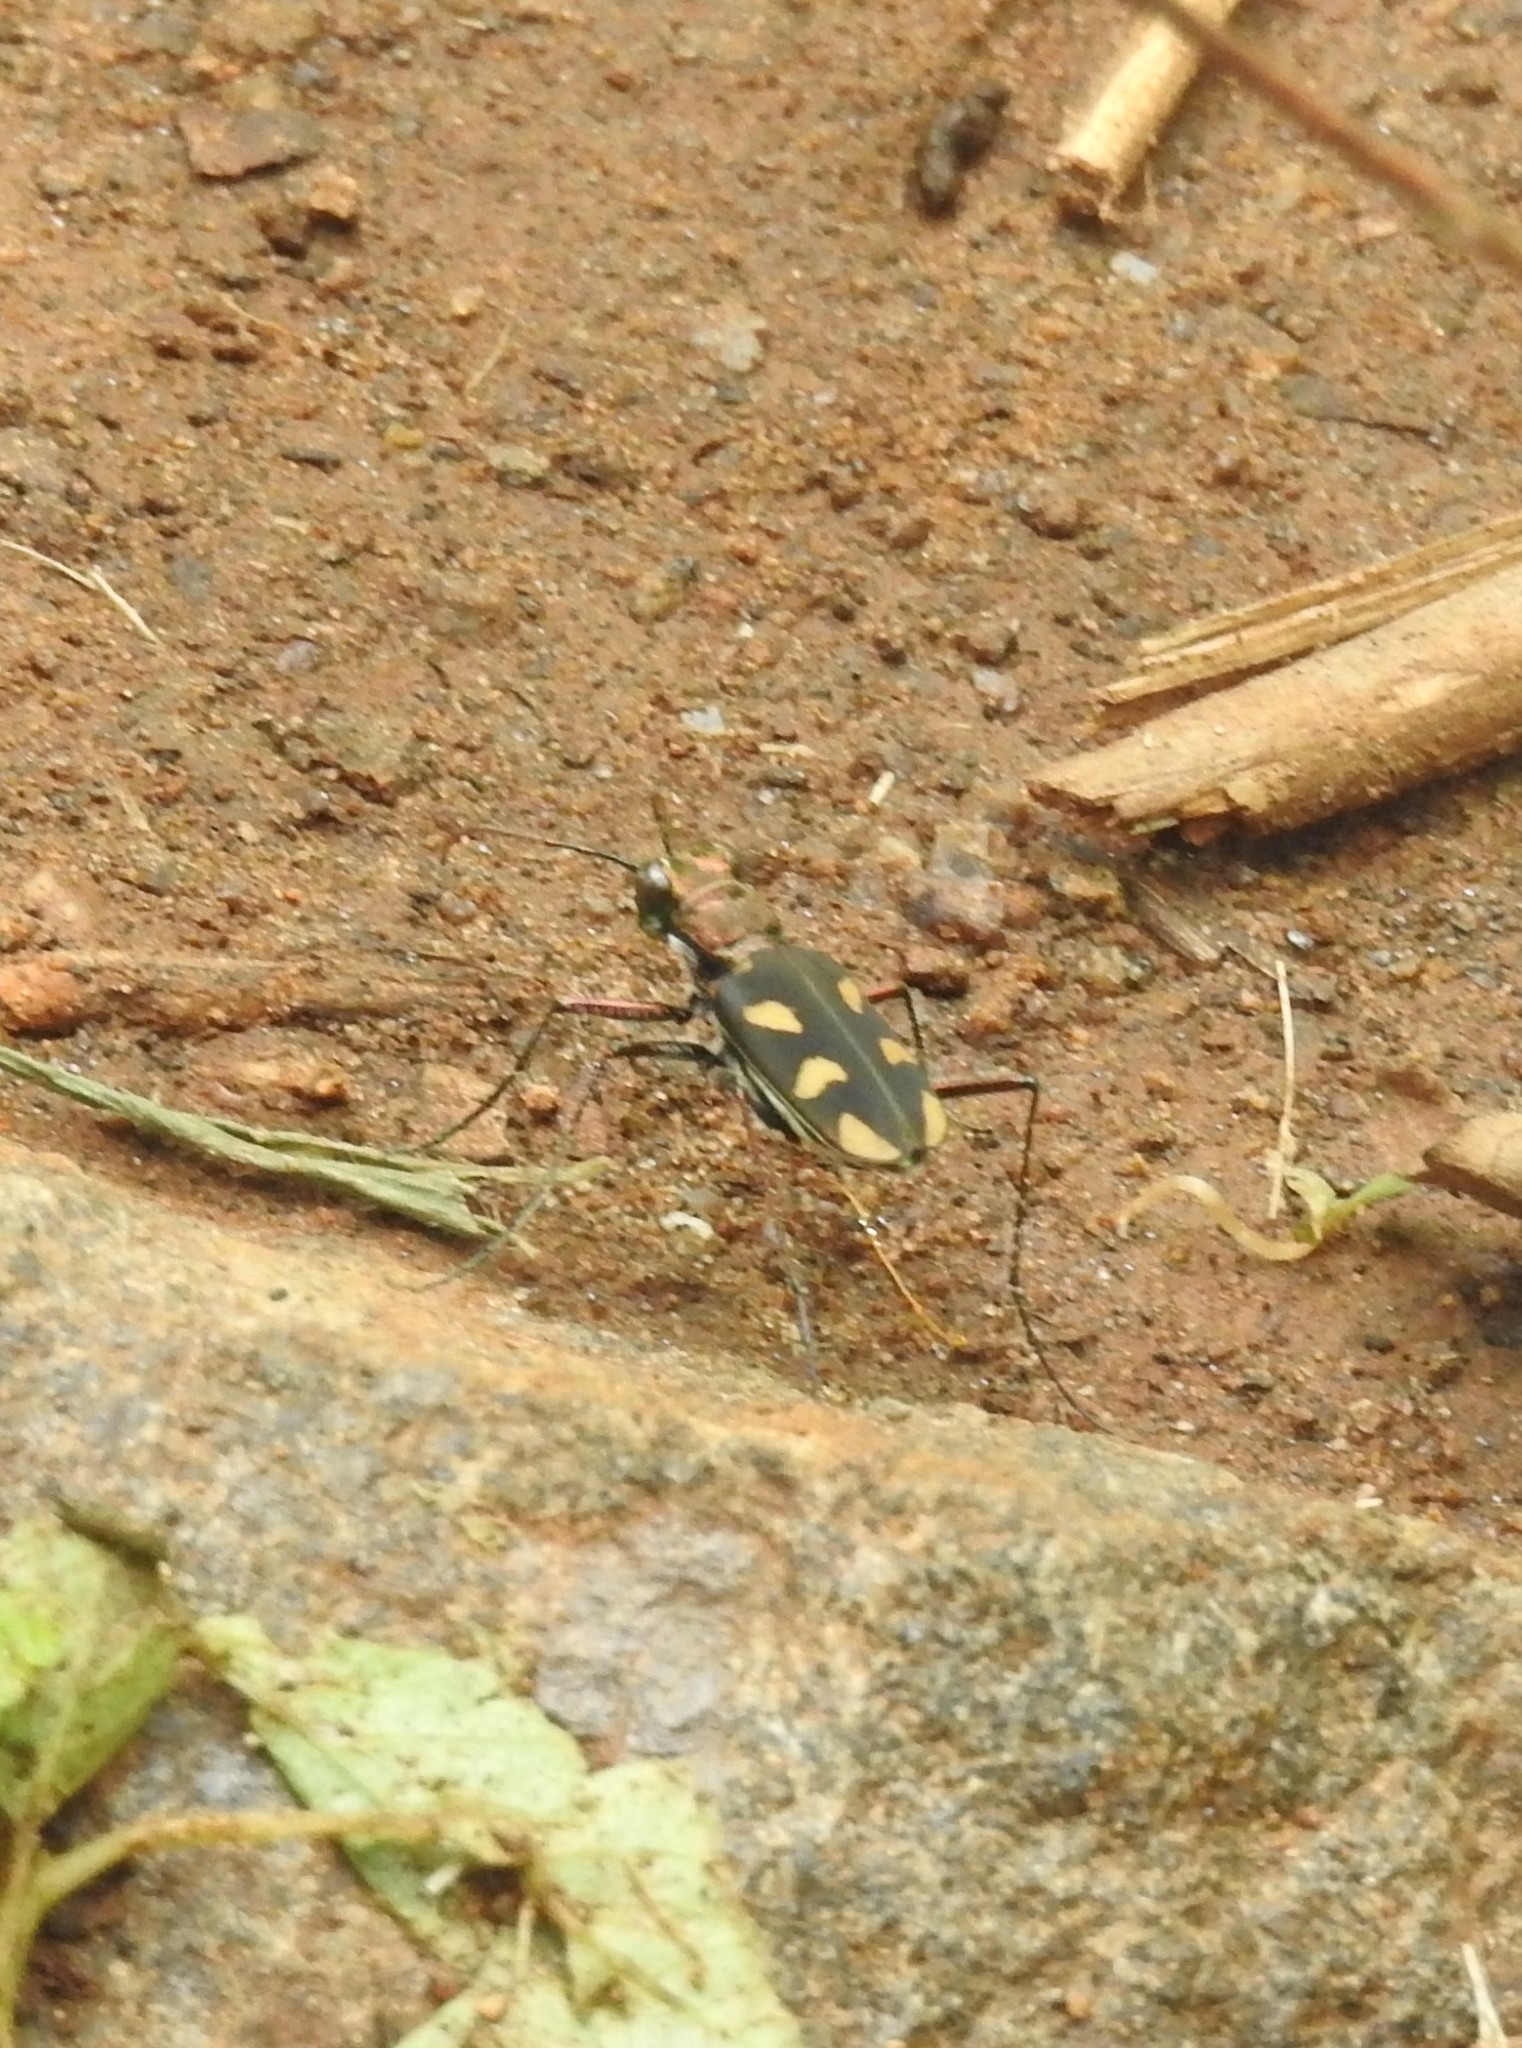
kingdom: Animalia
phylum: Arthropoda
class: Insecta
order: Coleoptera
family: Carabidae
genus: Cicindela
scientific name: Cicindela calligramma
